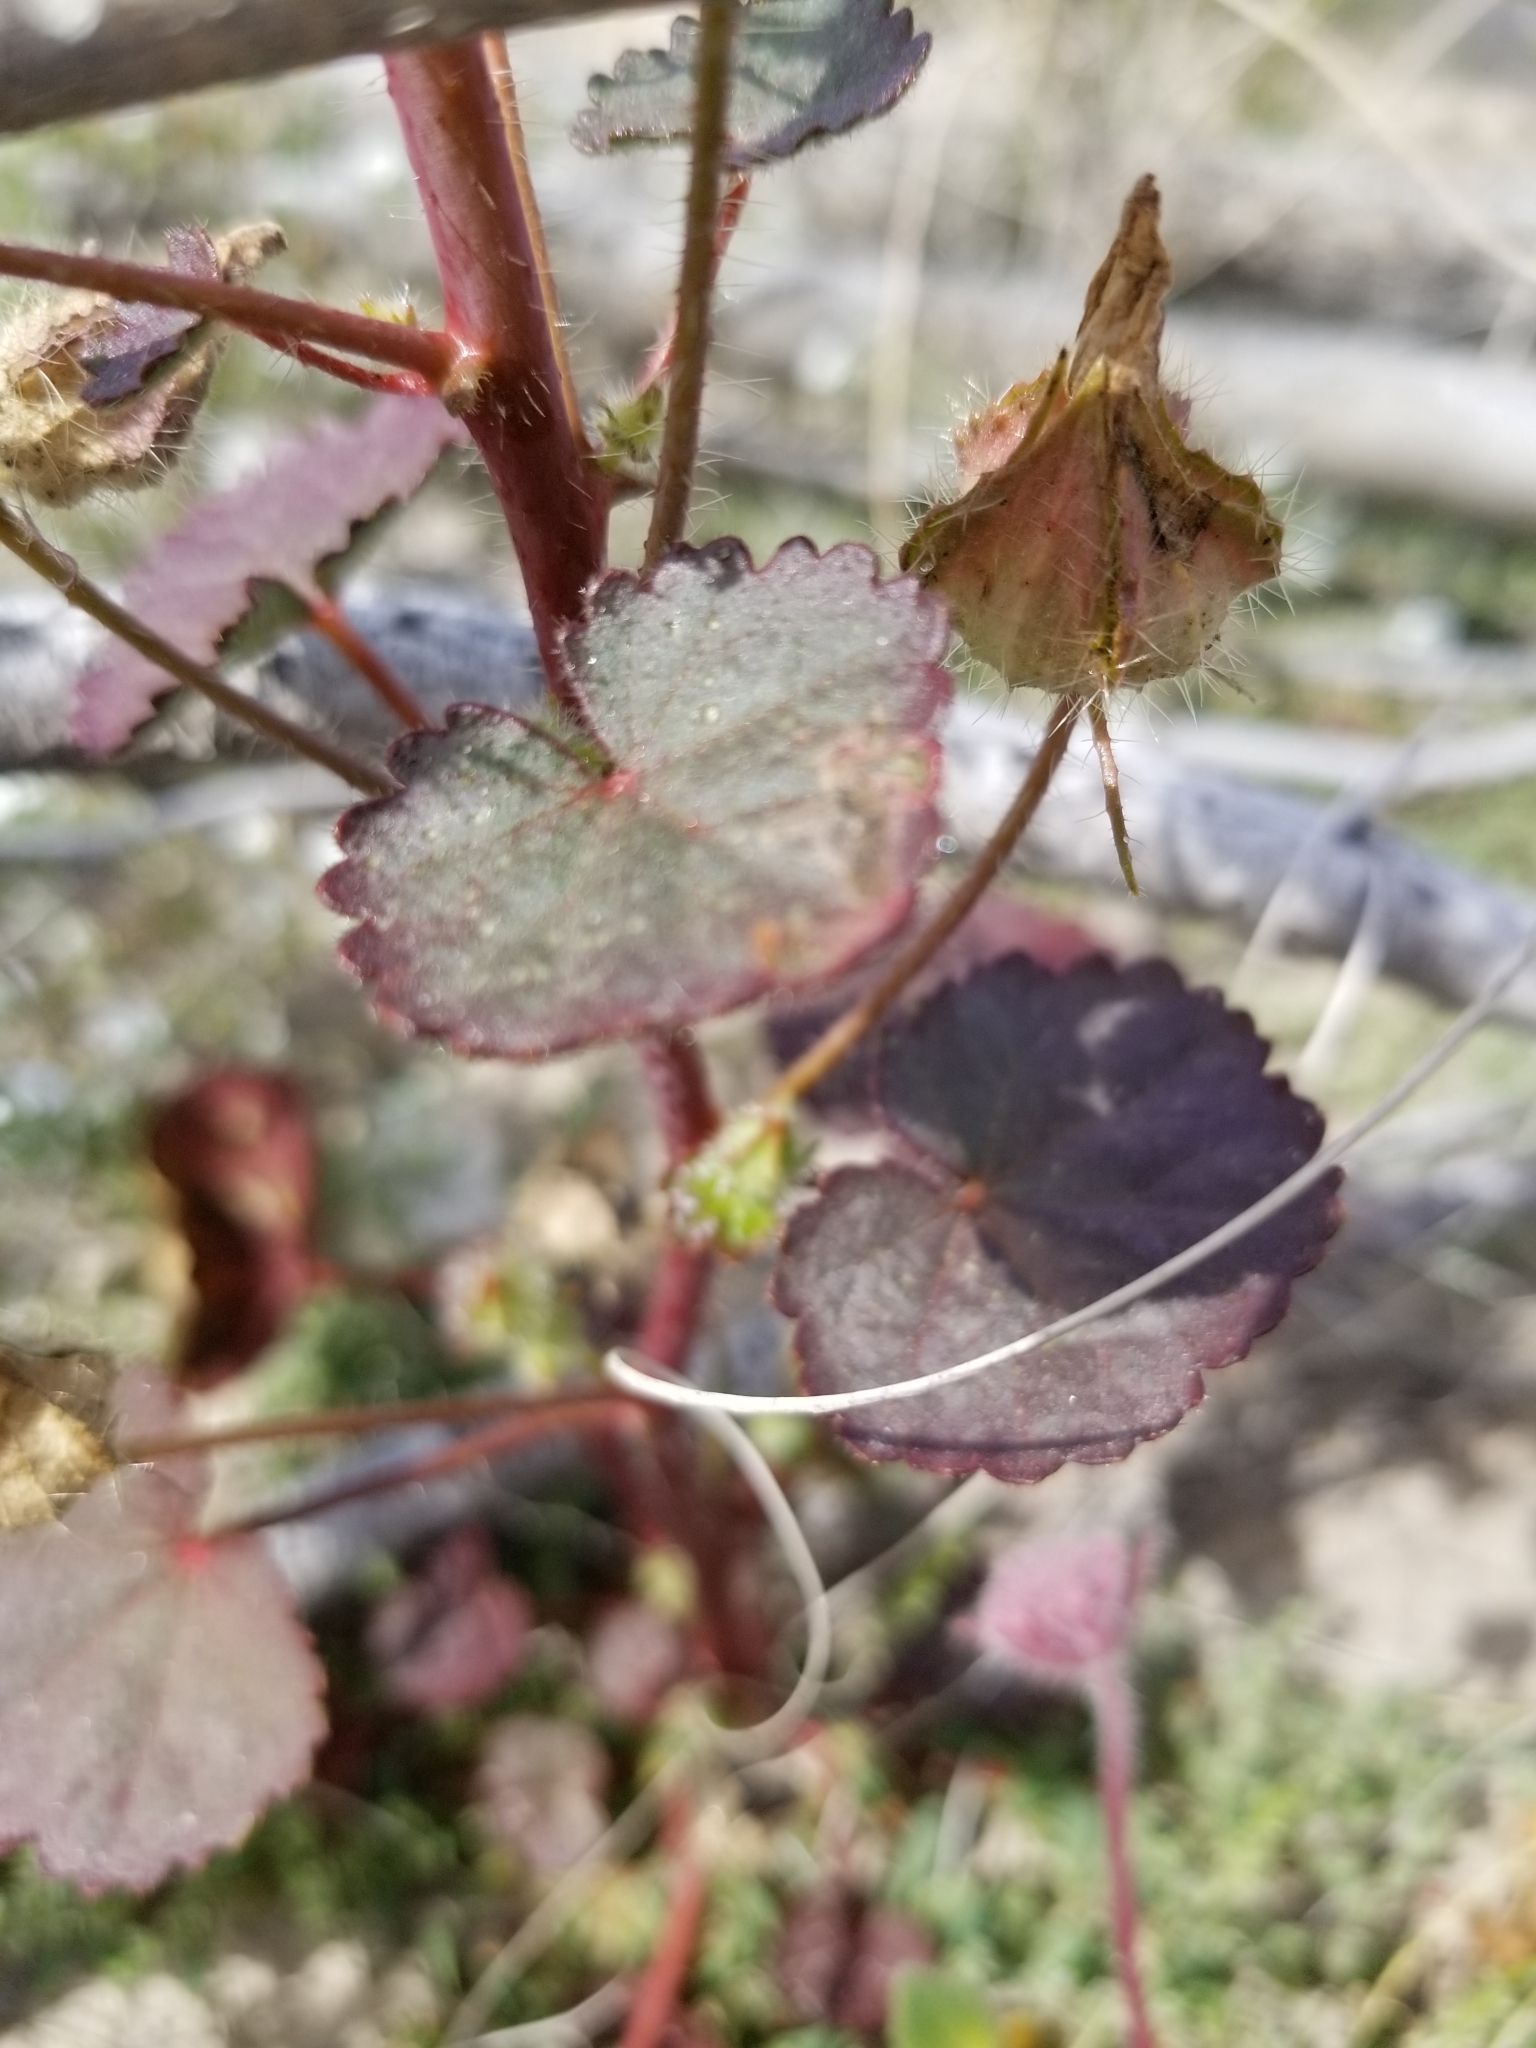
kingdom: Plantae
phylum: Tracheophyta
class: Magnoliopsida
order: Malvales
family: Malvaceae
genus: Eremalche
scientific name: Eremalche rotundifolia
